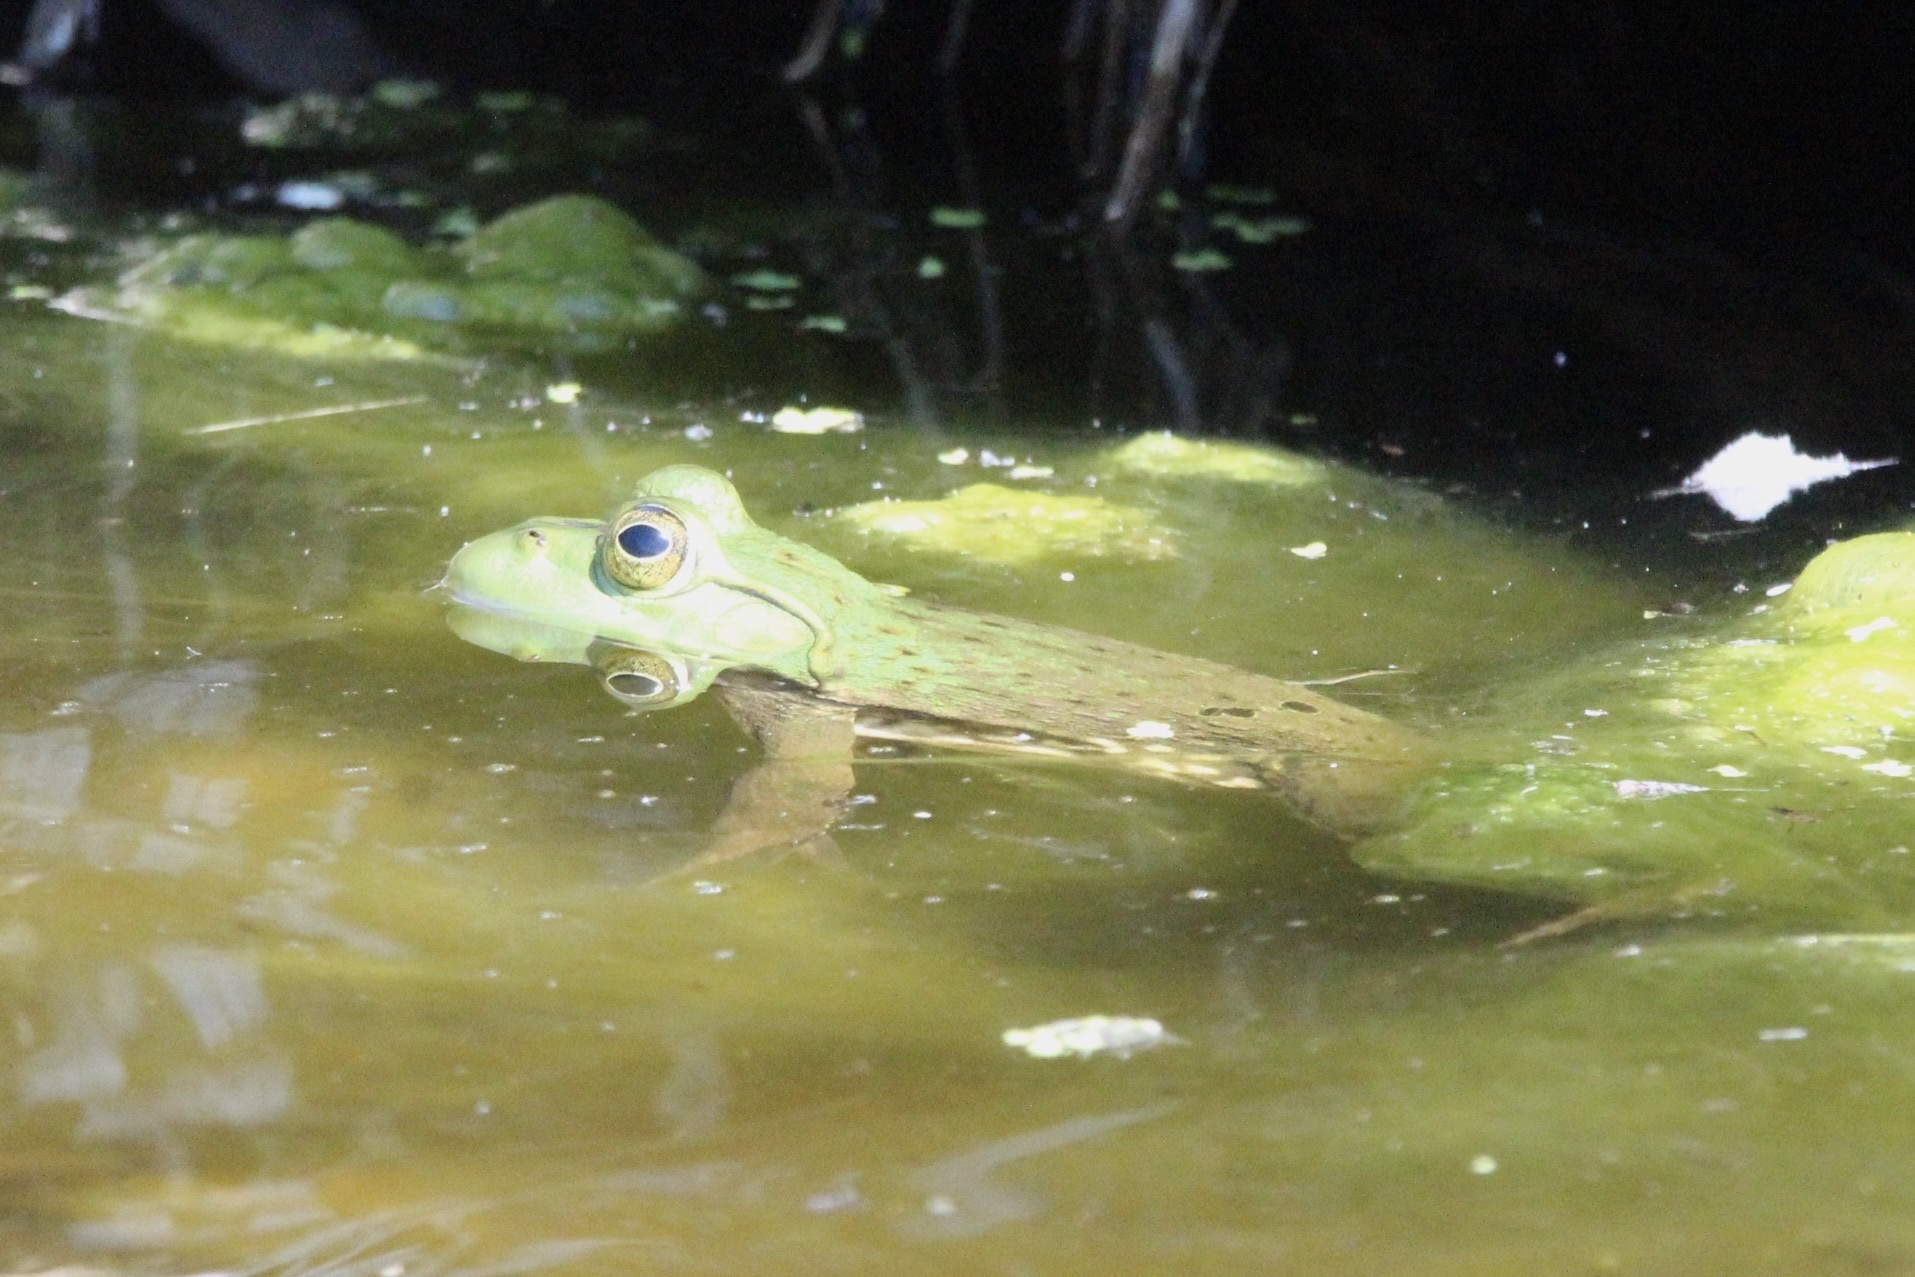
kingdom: Animalia
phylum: Chordata
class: Amphibia
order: Anura
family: Ranidae
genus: Lithobates
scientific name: Lithobates catesbeianus
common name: American bullfrog
